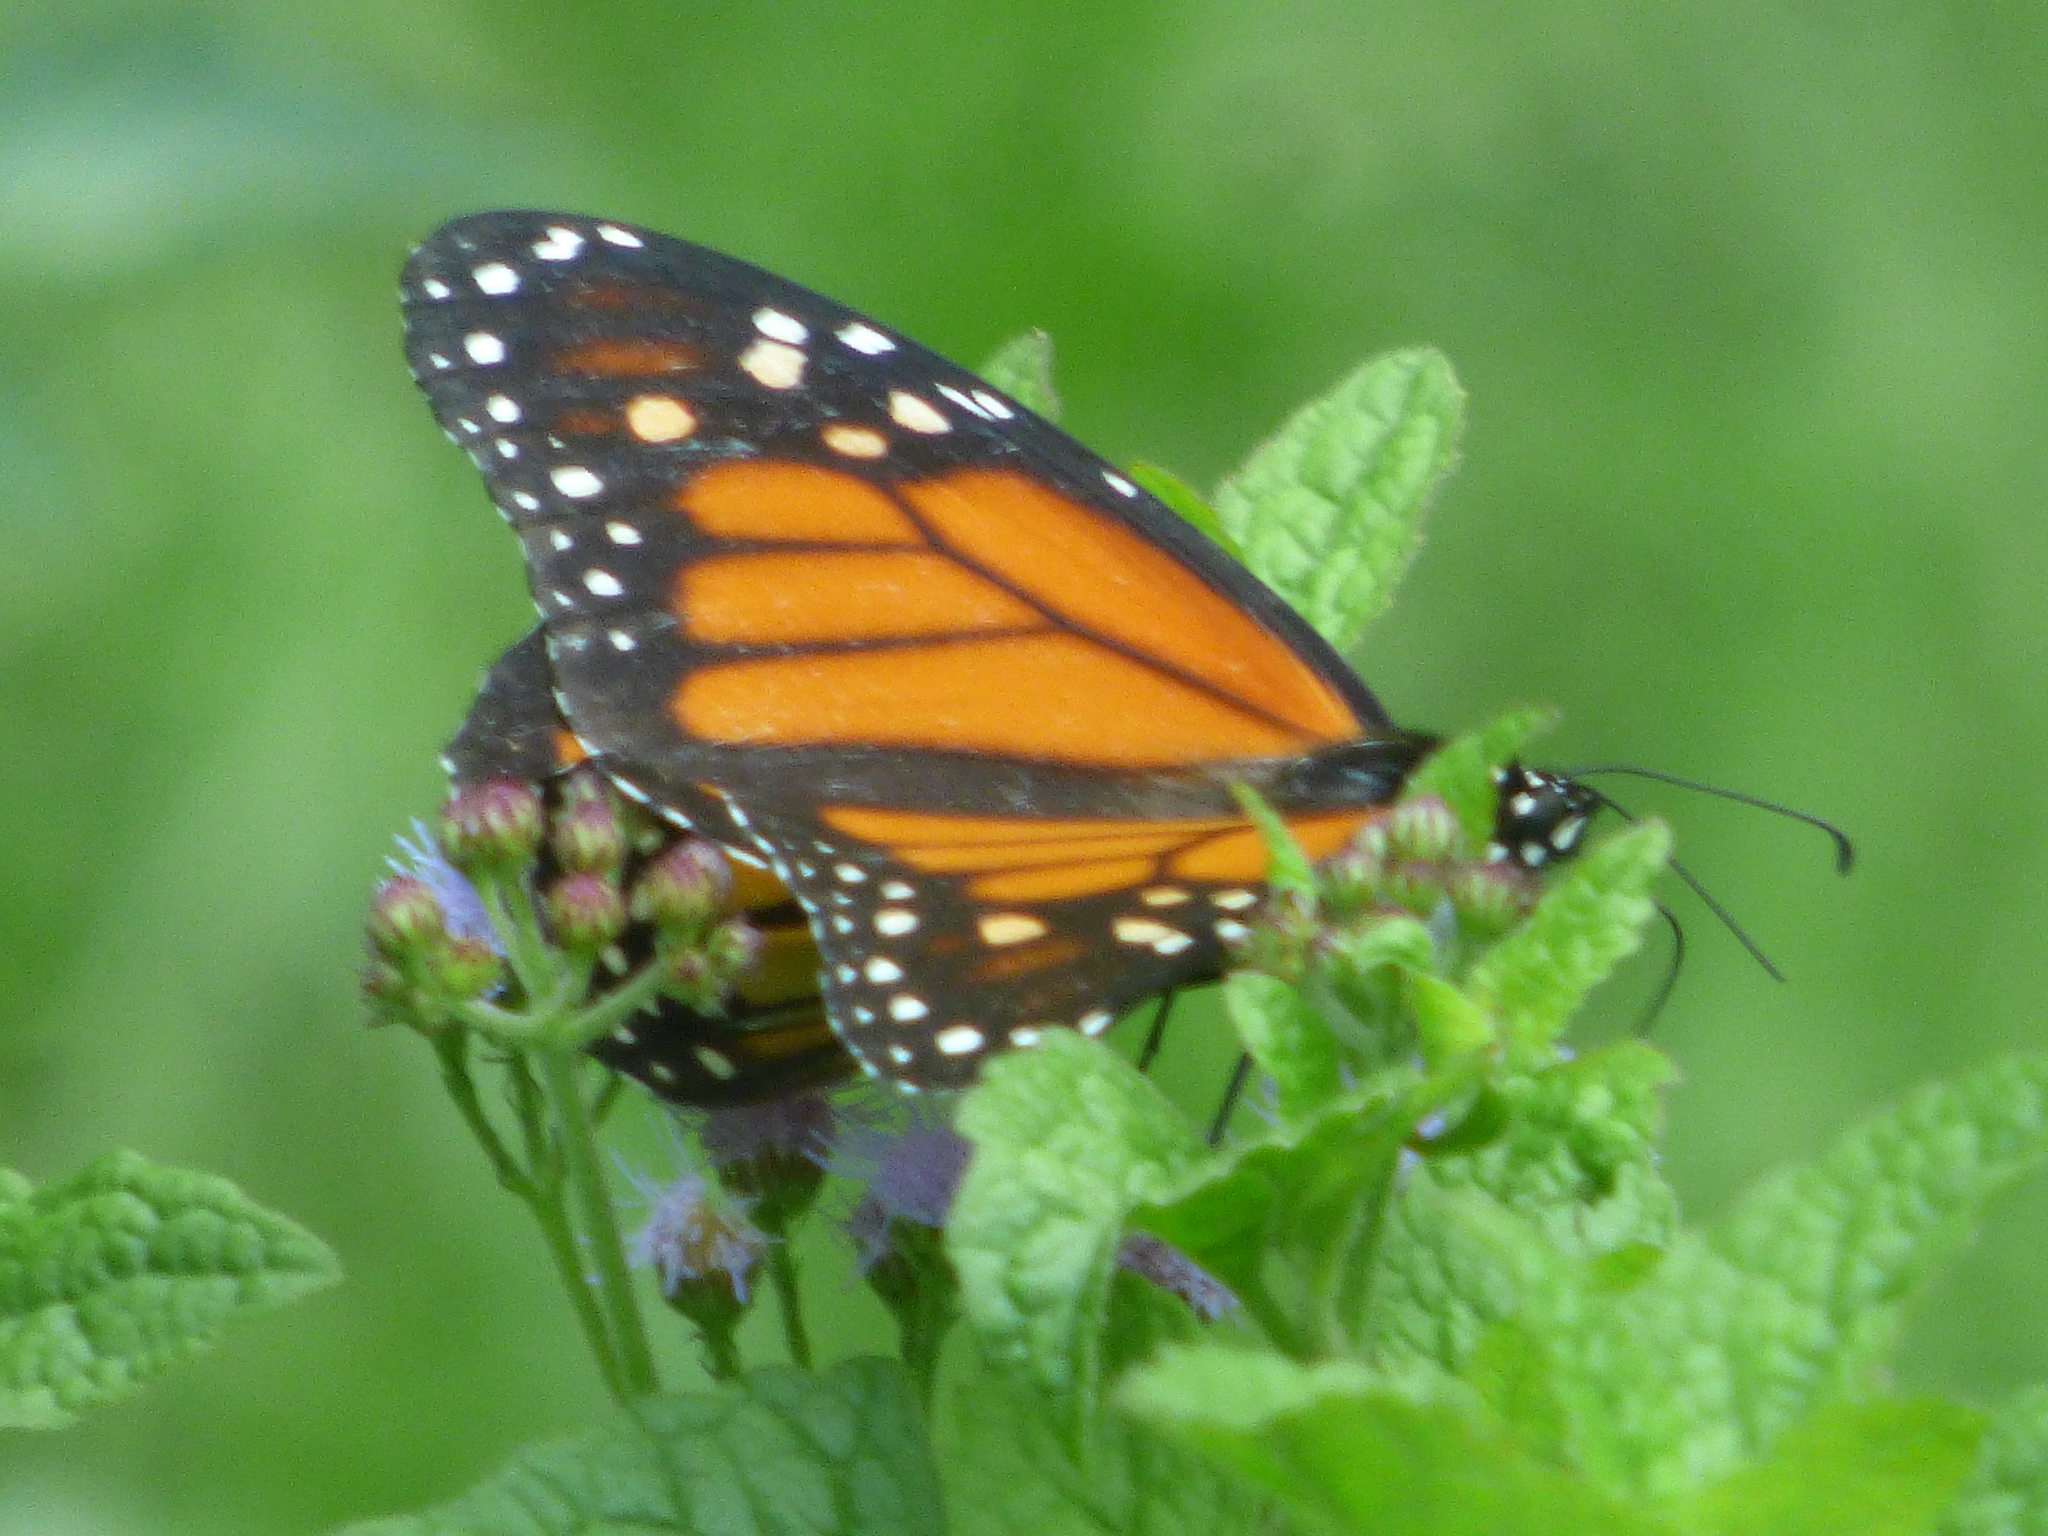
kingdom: Animalia
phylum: Arthropoda
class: Insecta
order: Lepidoptera
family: Nymphalidae
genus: Danaus
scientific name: Danaus plexippus
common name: Monarch
